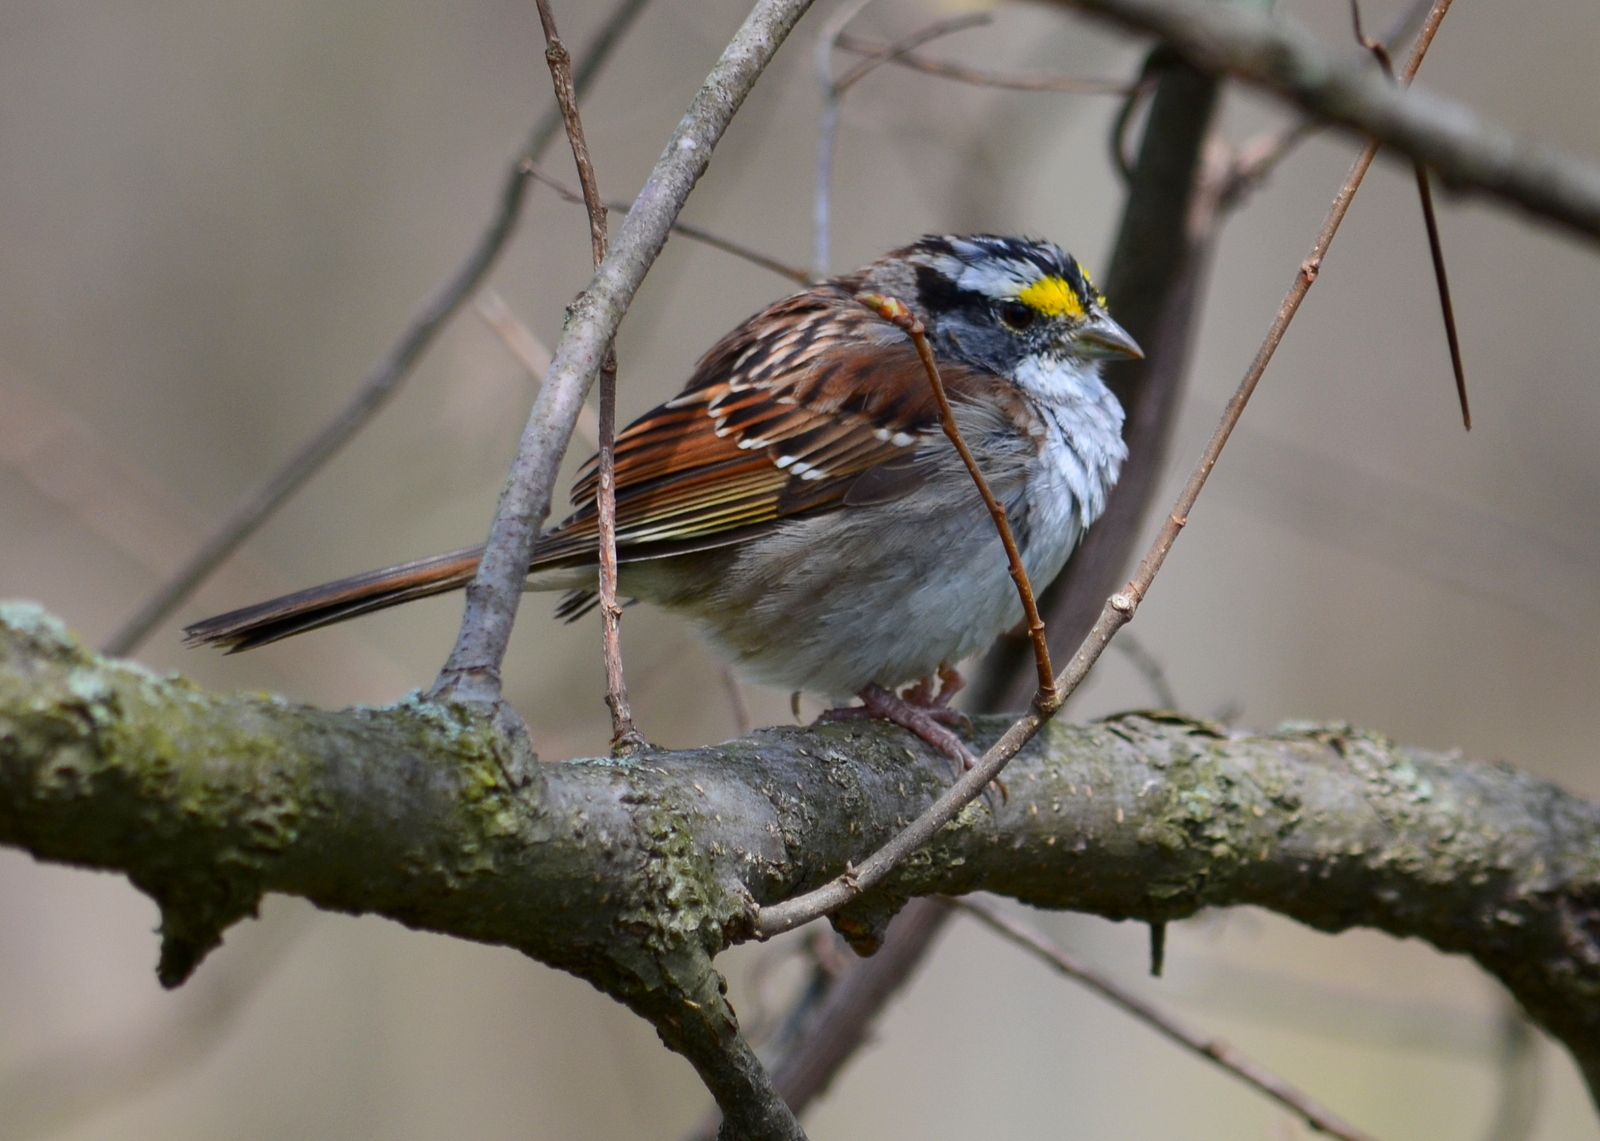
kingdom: Animalia
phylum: Chordata
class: Aves
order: Passeriformes
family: Passerellidae
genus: Zonotrichia
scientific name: Zonotrichia albicollis
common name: White-throated sparrow
